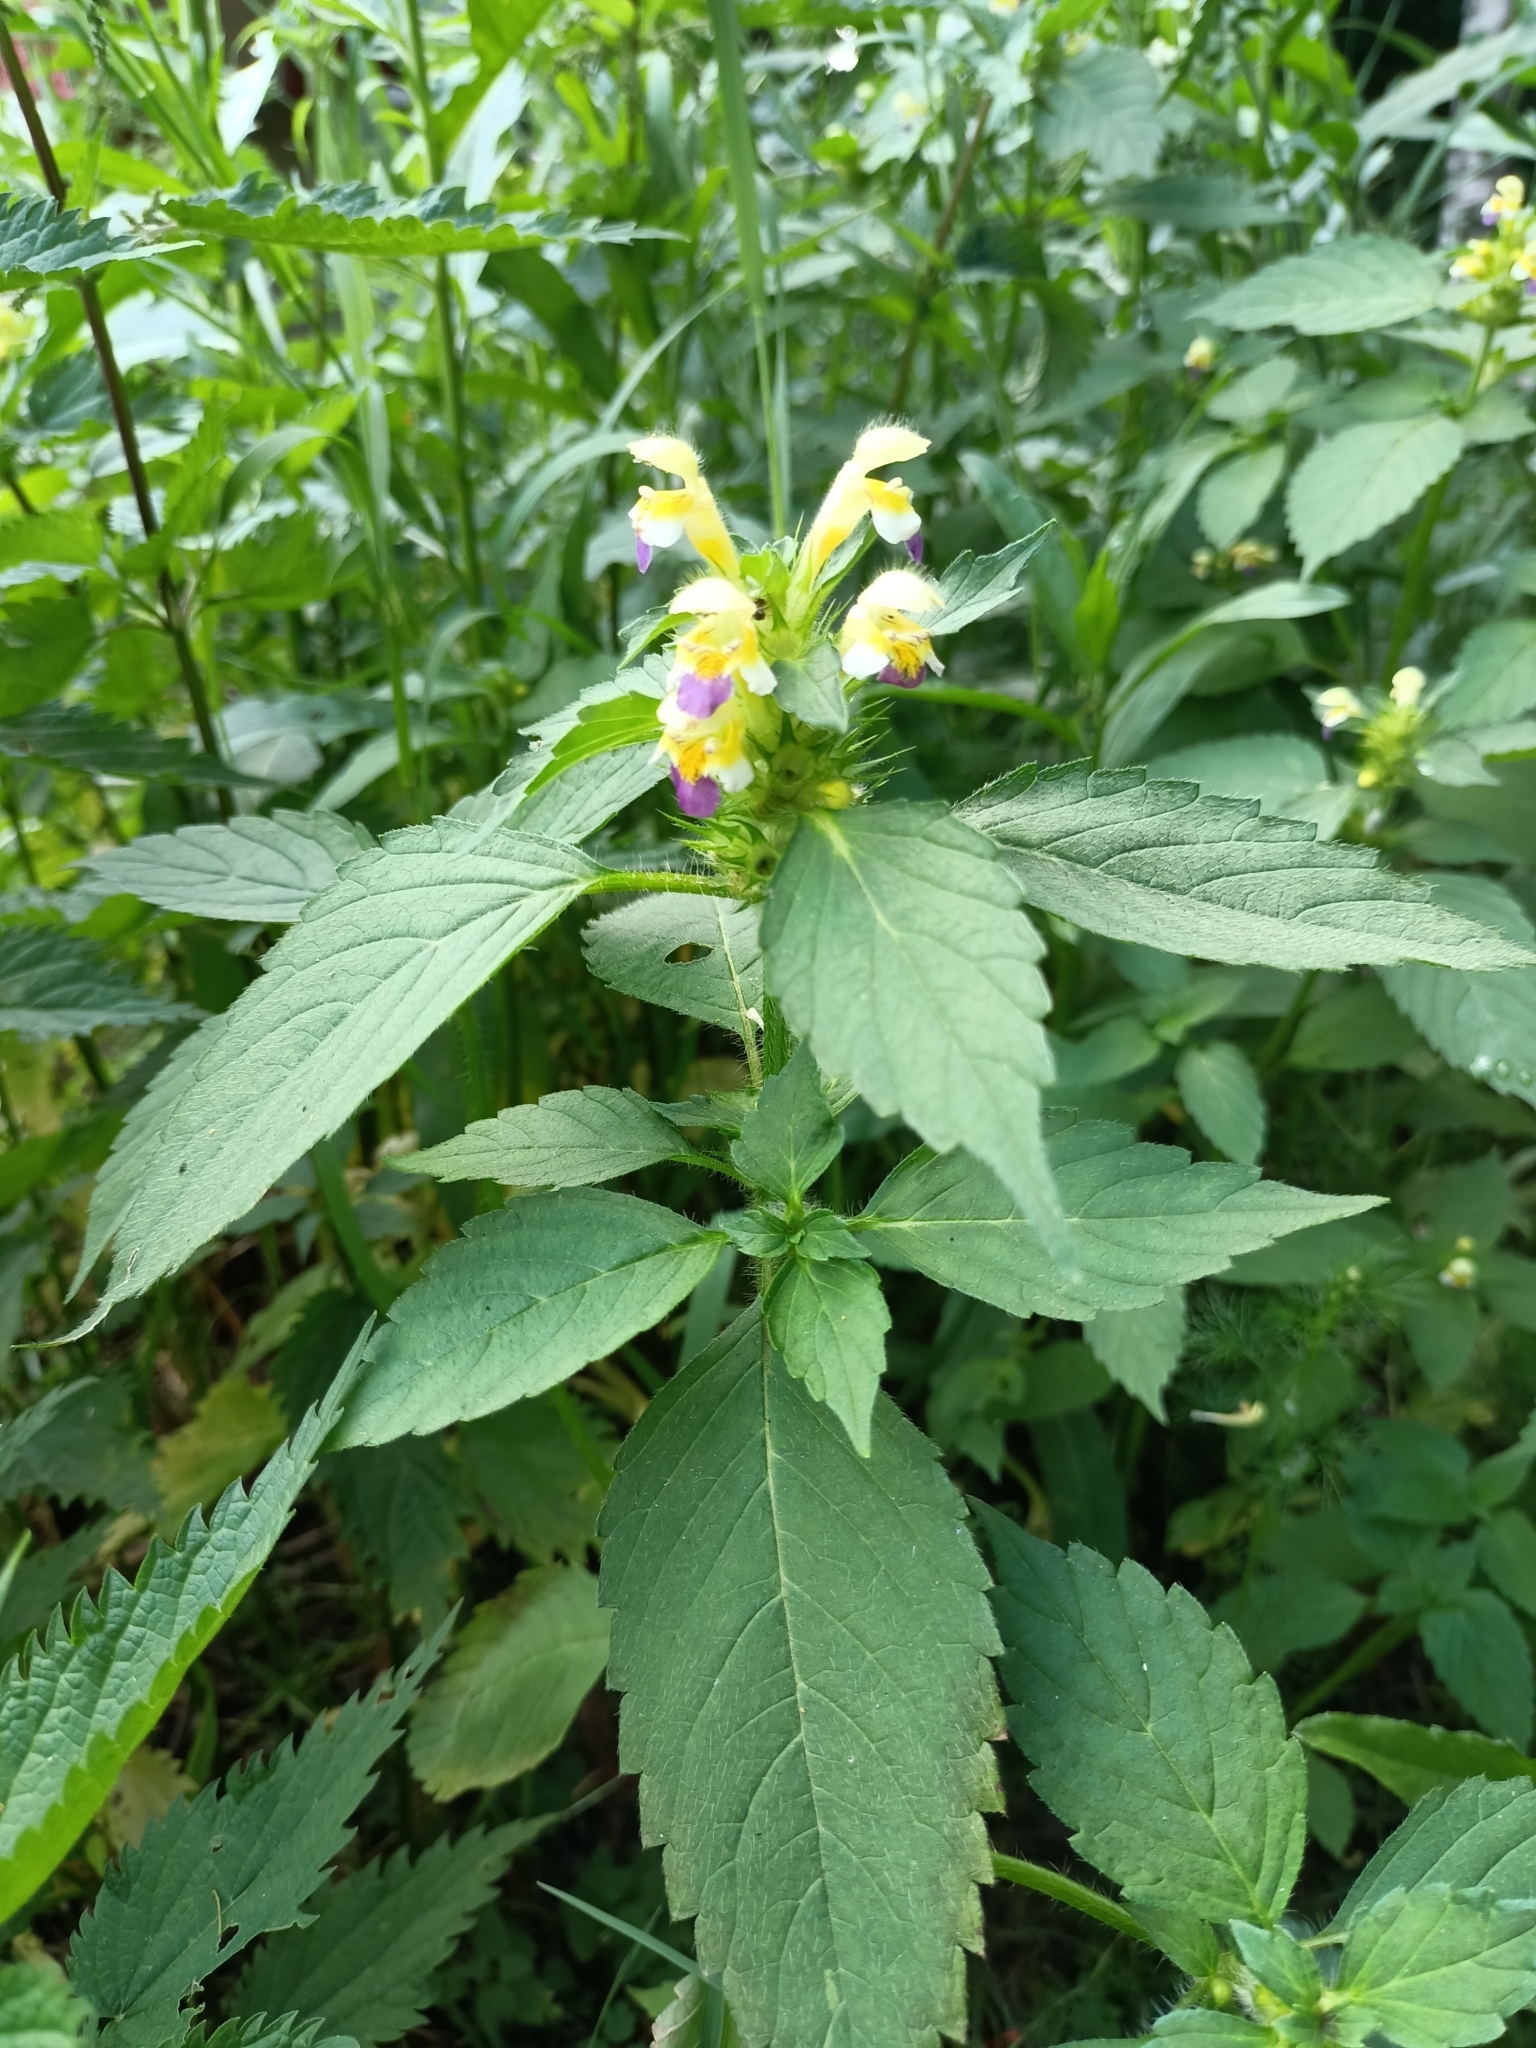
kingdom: Plantae
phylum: Tracheophyta
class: Magnoliopsida
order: Lamiales
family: Lamiaceae
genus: Galeopsis
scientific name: Galeopsis speciosa
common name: Large-flowered hemp-nettle
